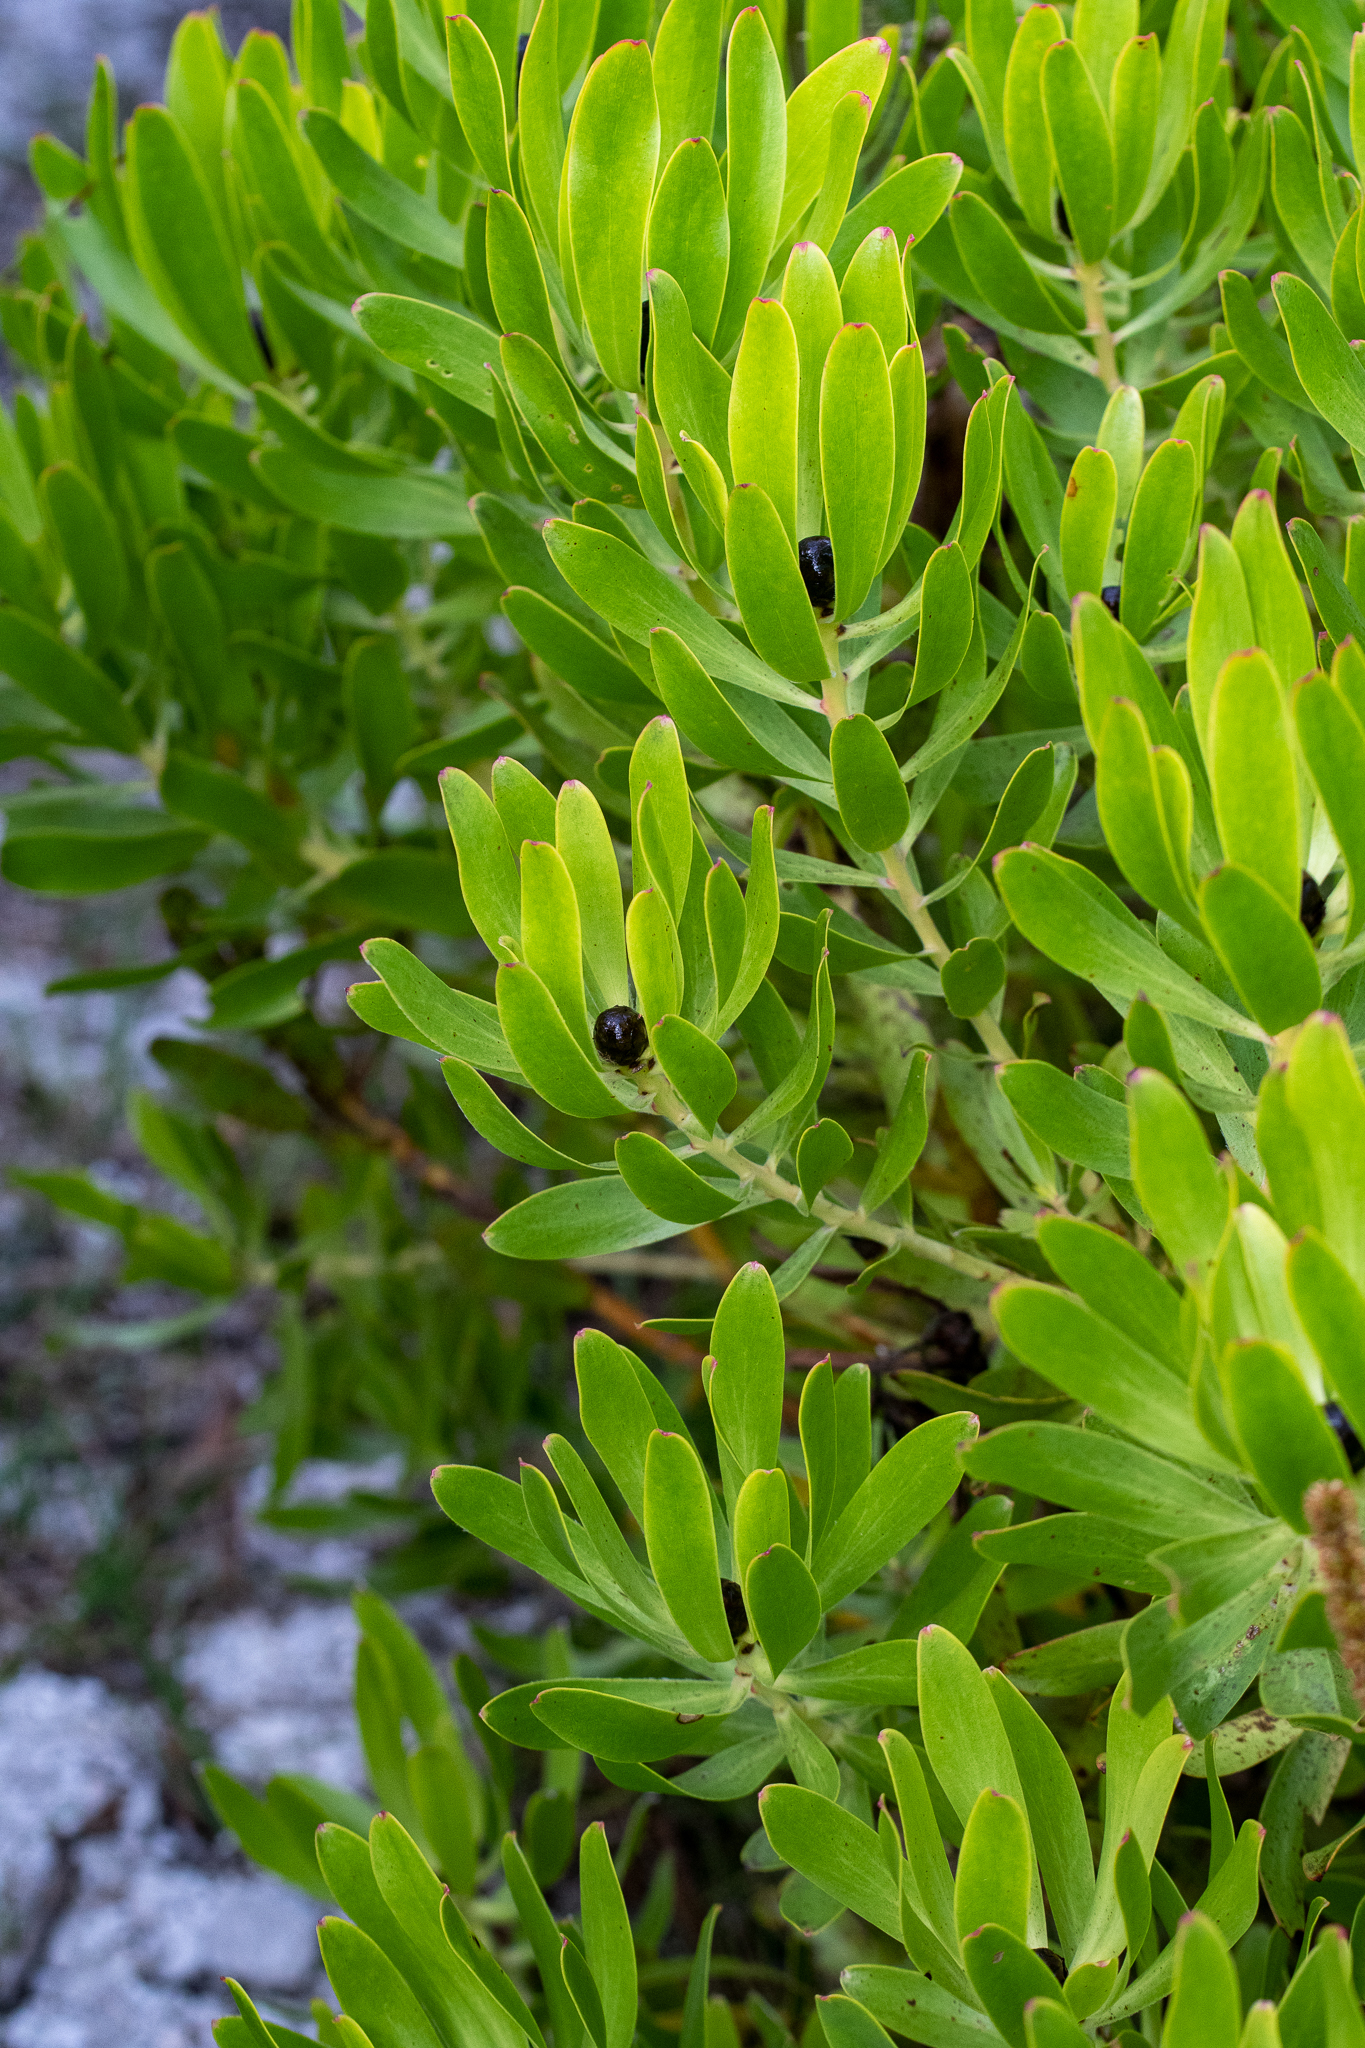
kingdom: Plantae
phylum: Tracheophyta
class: Magnoliopsida
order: Proteales
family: Proteaceae
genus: Leucadendron
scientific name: Leucadendron microcephalum
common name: Oilbract conebush
